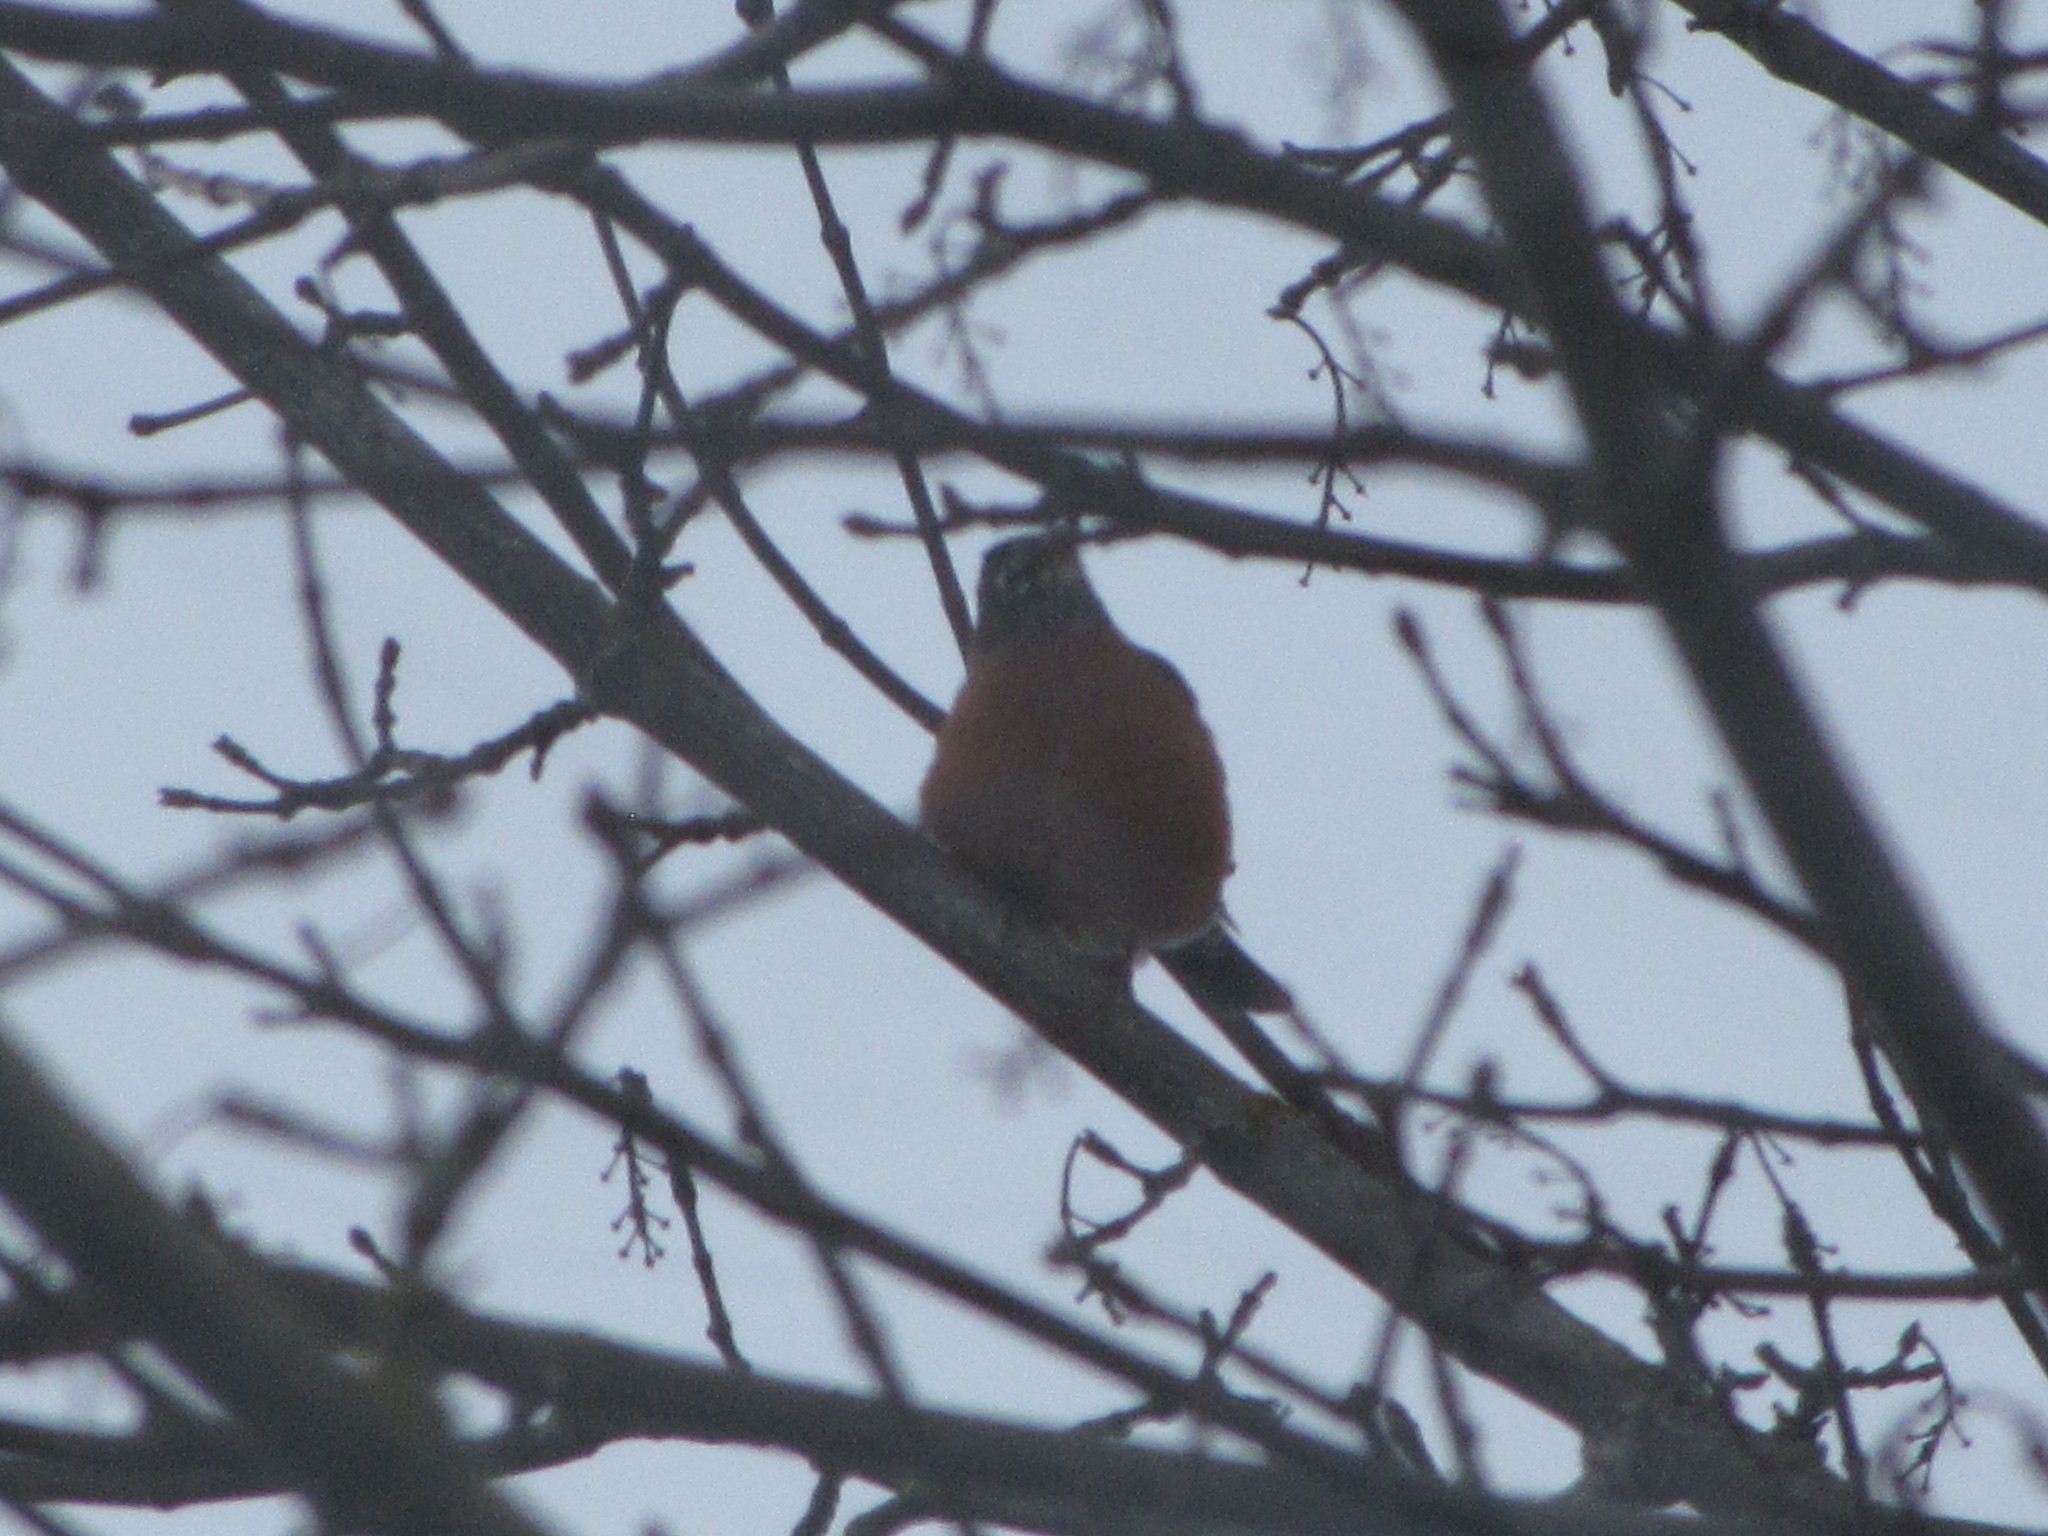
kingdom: Animalia
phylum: Chordata
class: Aves
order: Passeriformes
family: Turdidae
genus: Turdus
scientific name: Turdus migratorius
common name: American robin
